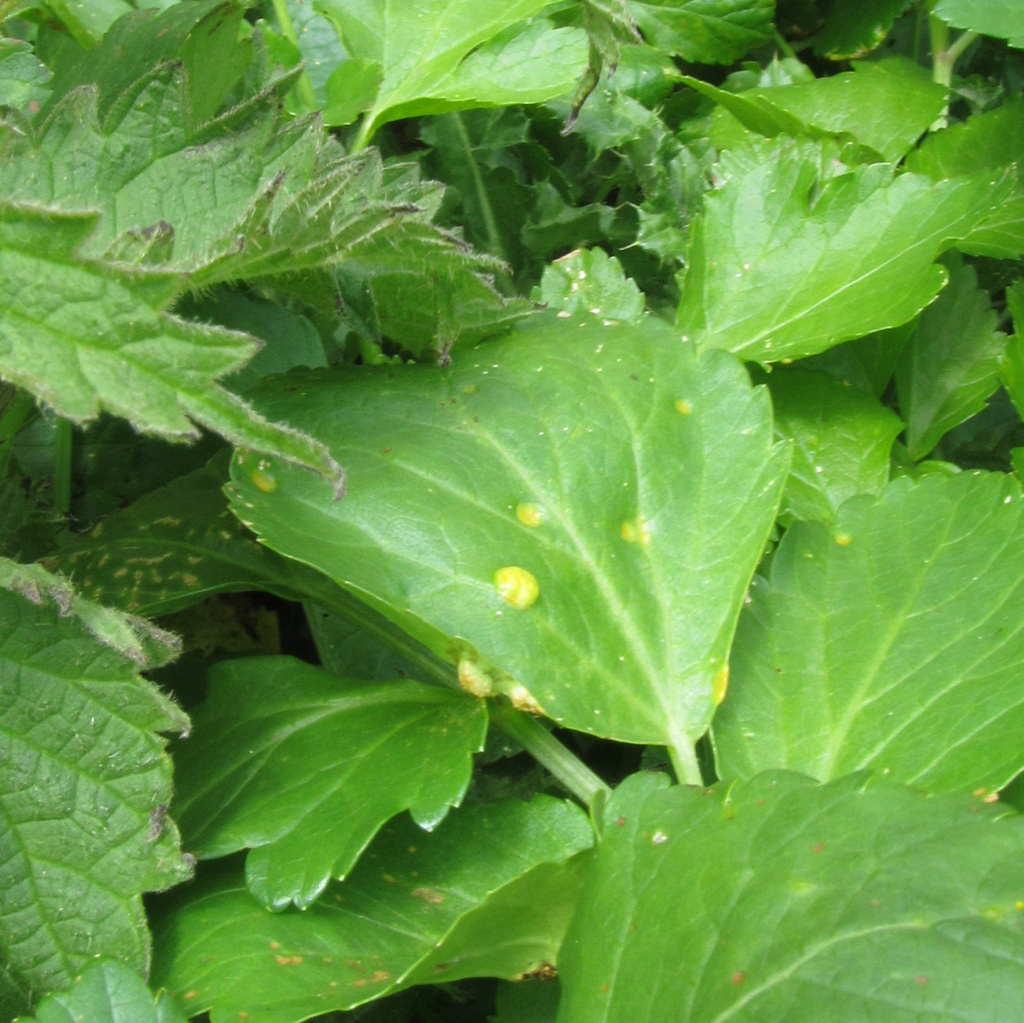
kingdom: Fungi
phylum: Basidiomycota
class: Pucciniomycetes
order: Pucciniales
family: Pucciniaceae
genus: Puccinia
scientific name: Puccinia smyrnii
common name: Alexanders rust
